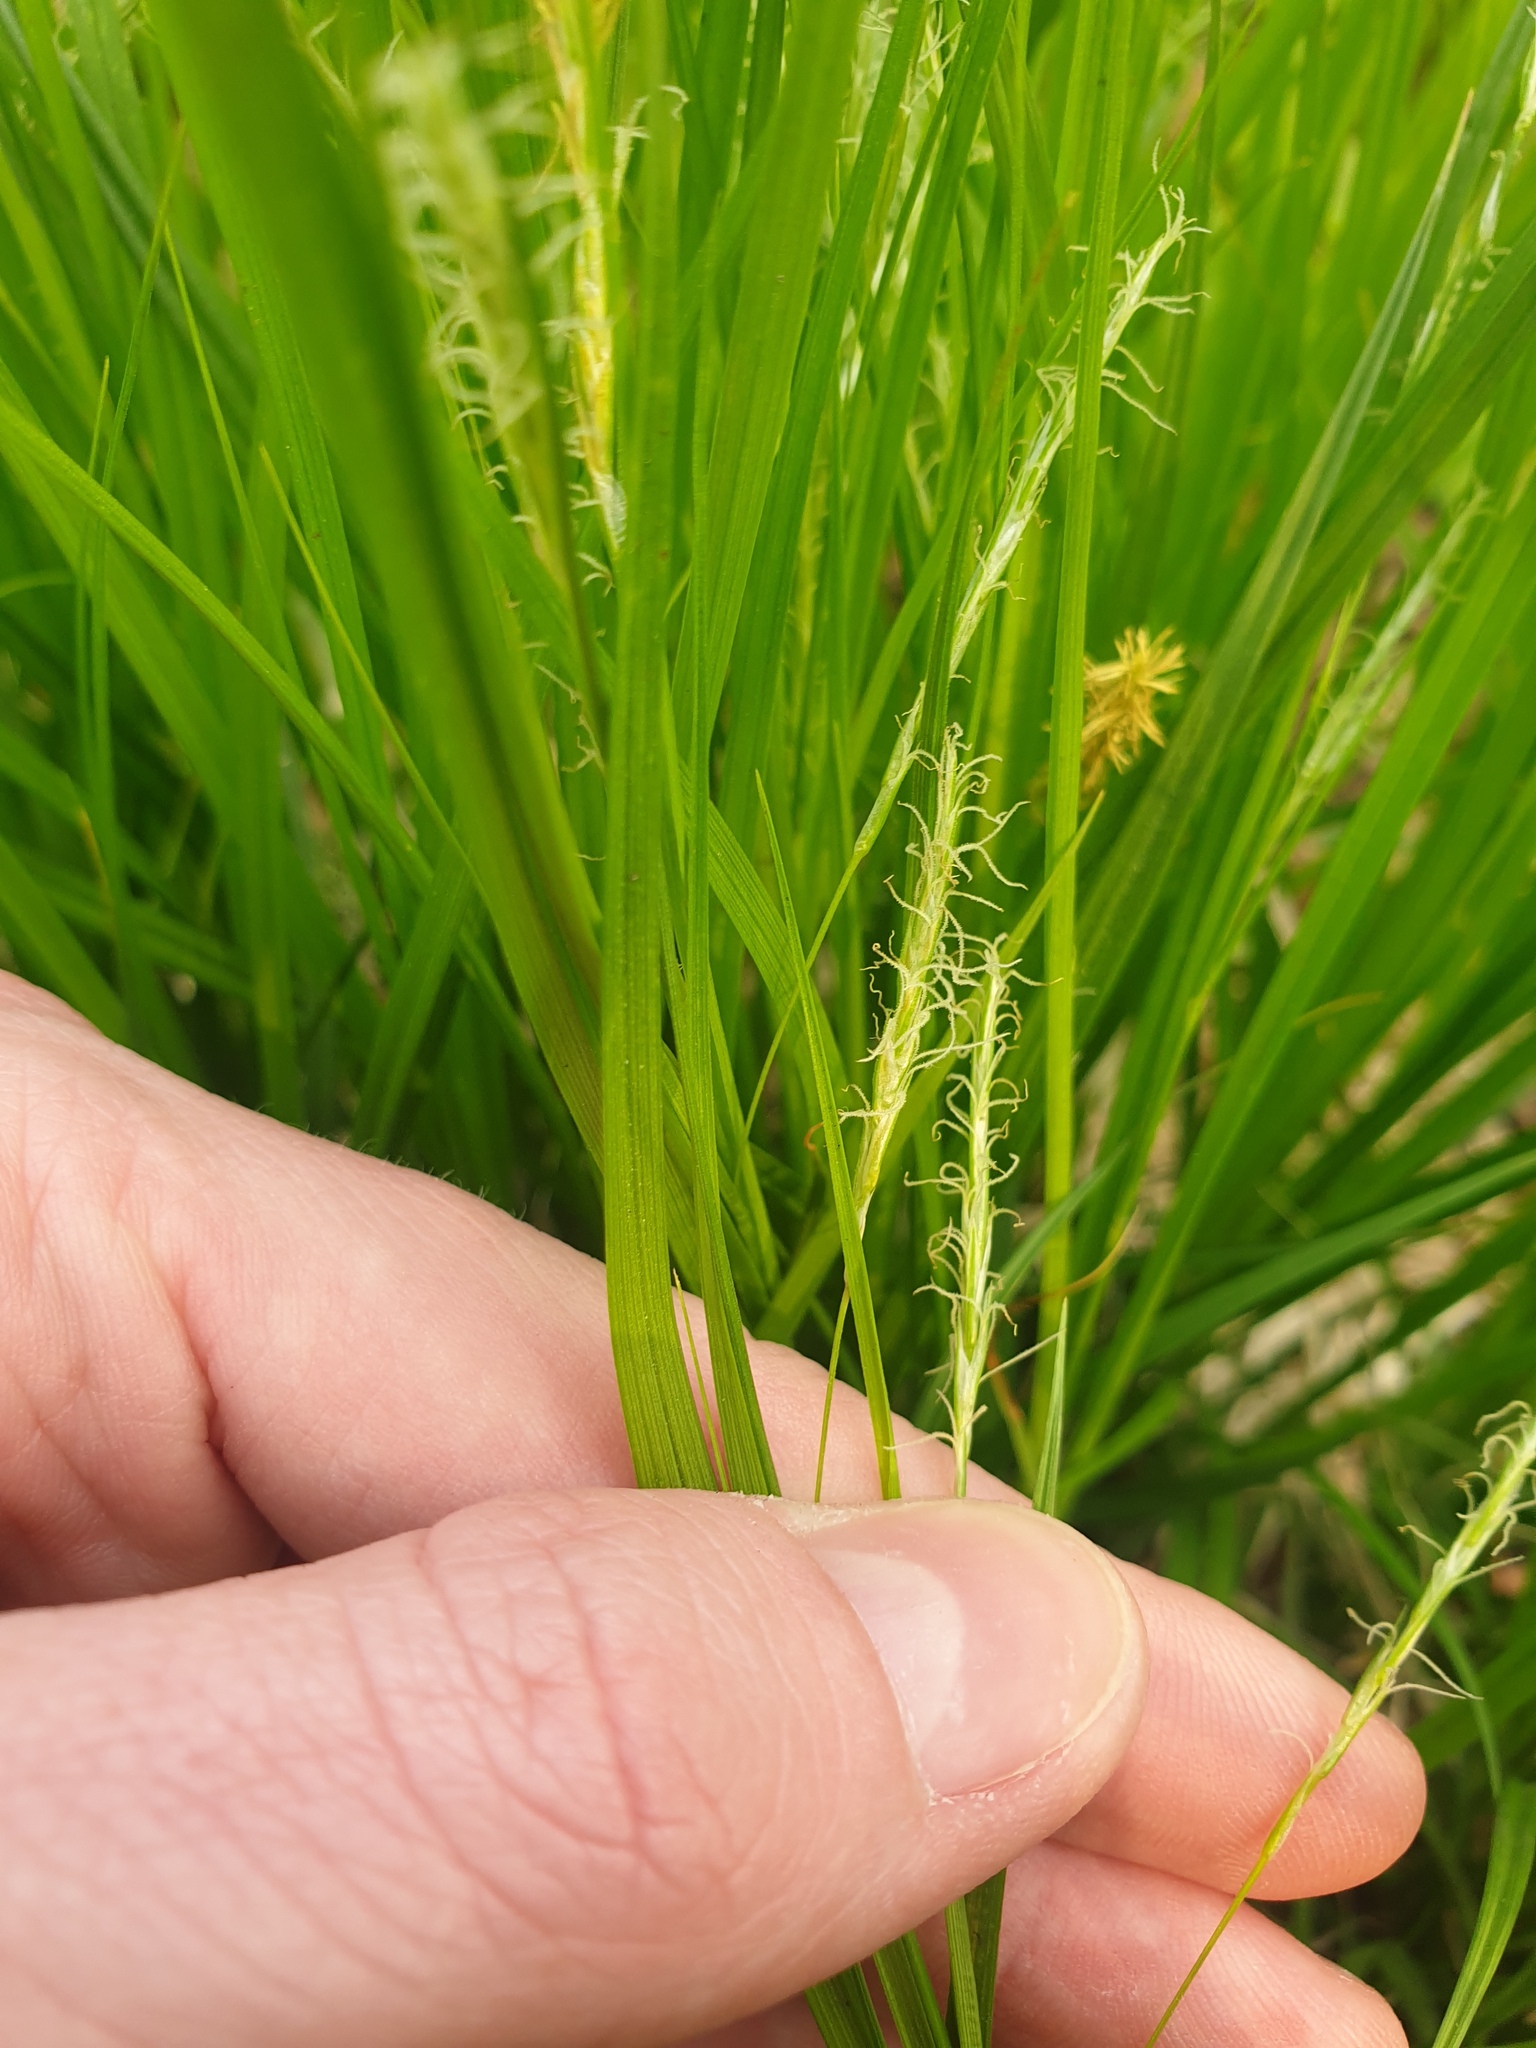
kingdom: Plantae
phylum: Tracheophyta
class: Liliopsida
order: Poales
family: Cyperaceae
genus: Carex
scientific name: Carex sprengelii
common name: Long-beaked sedge
